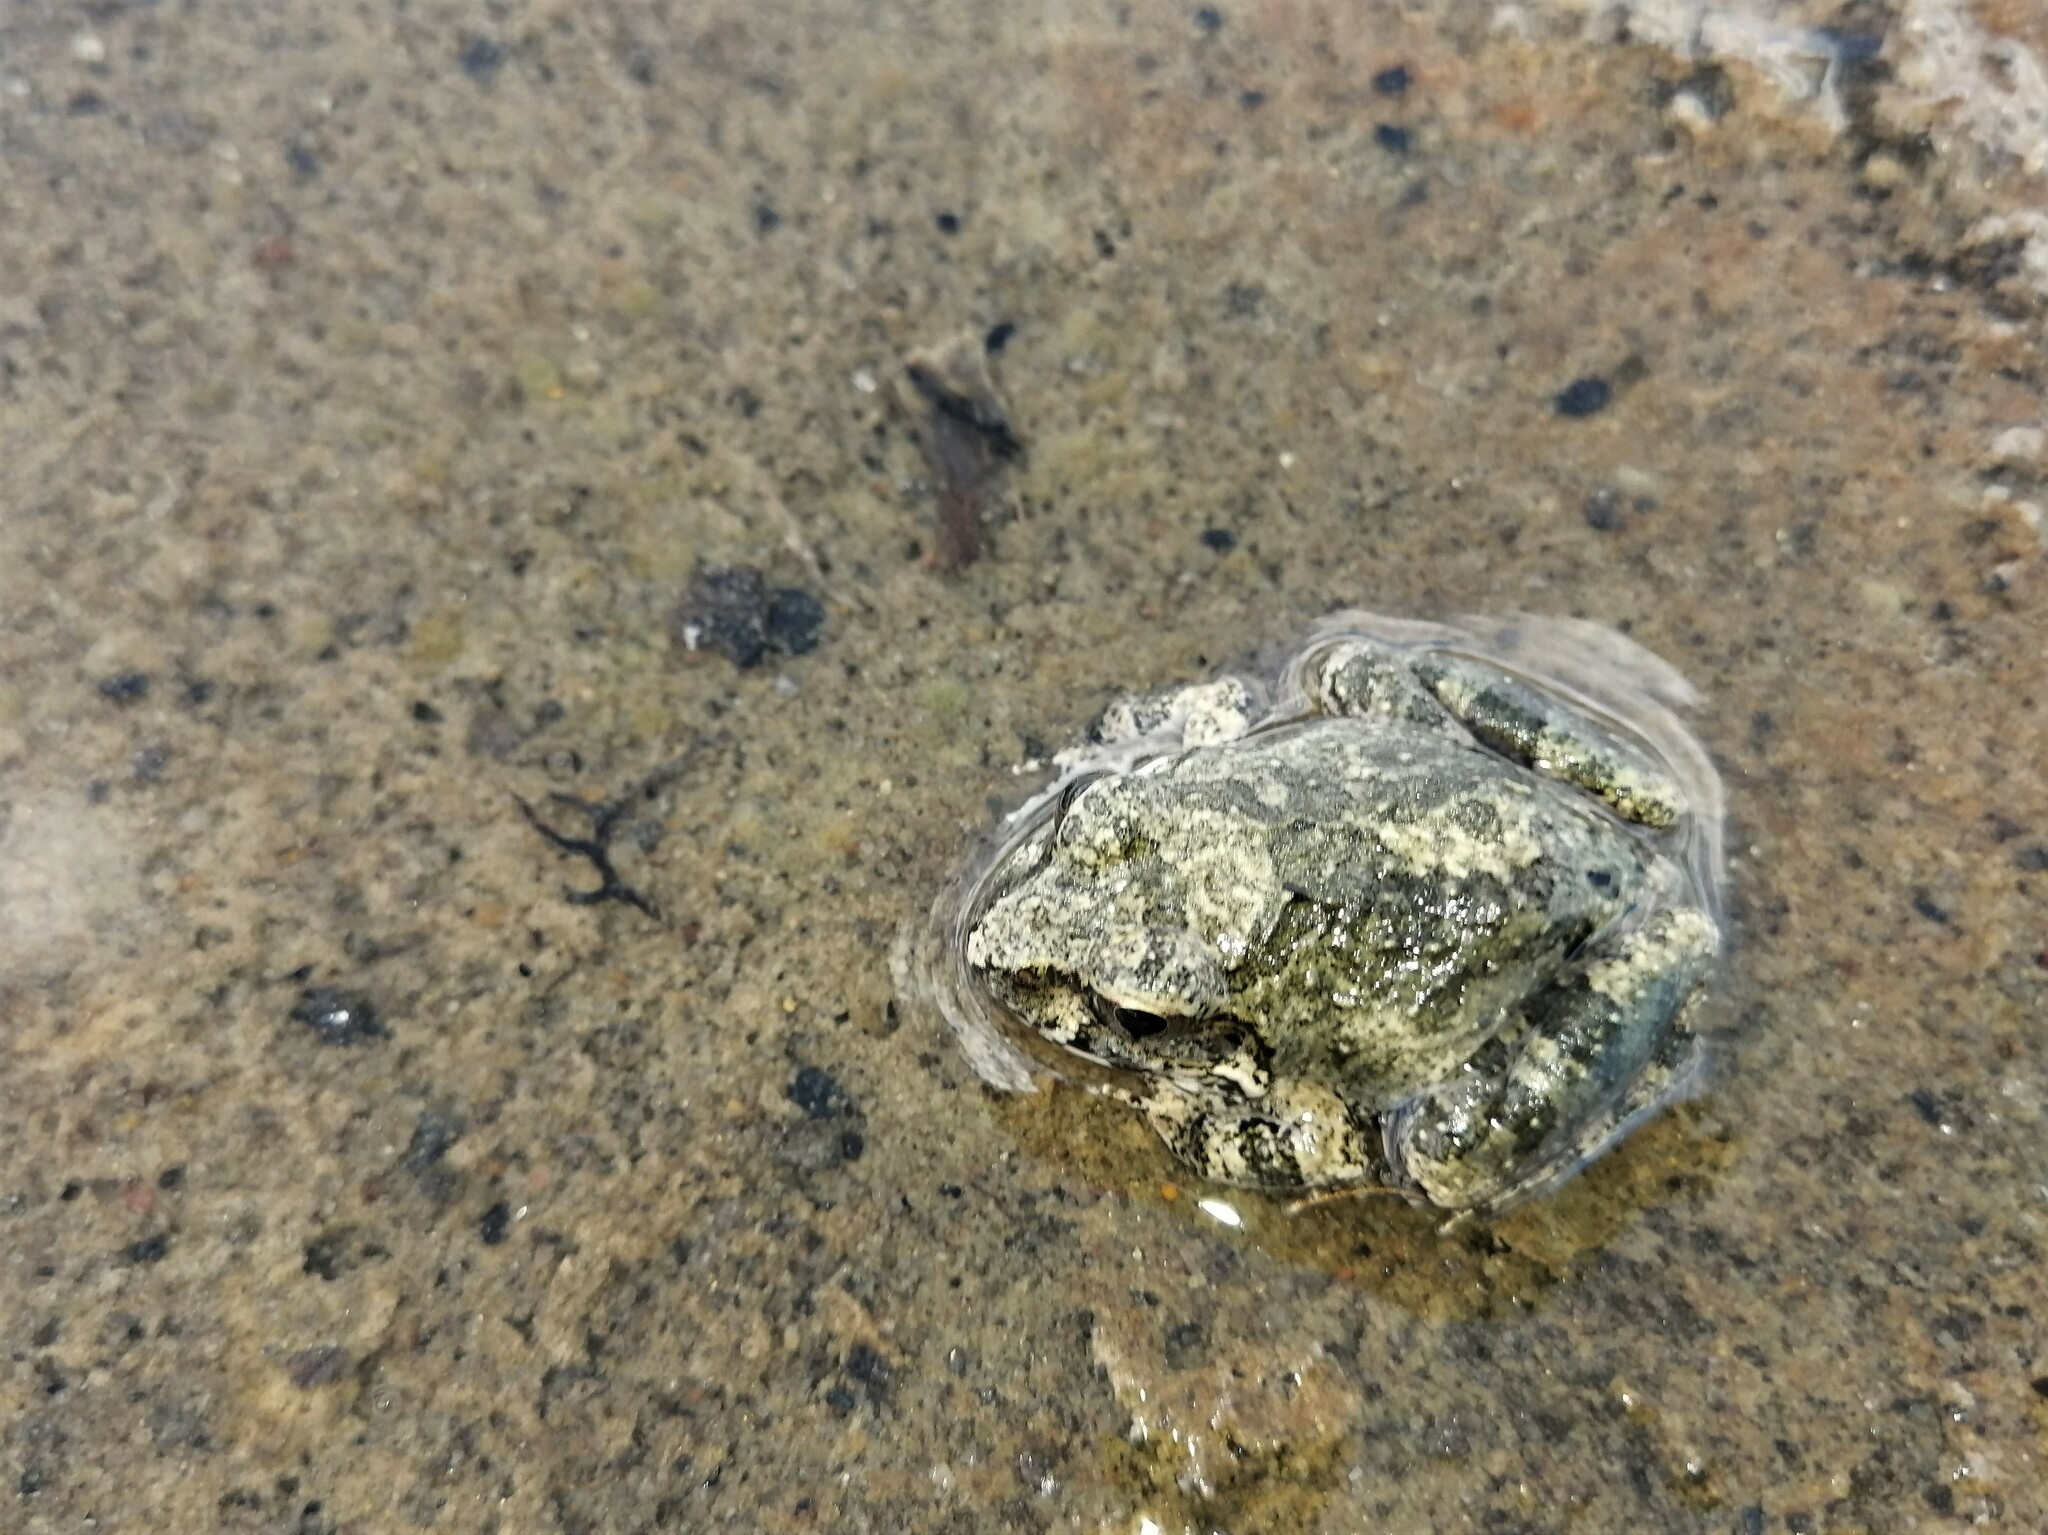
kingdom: Animalia
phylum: Chordata
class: Amphibia
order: Anura
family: Pyxicephalidae
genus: Tomopterna
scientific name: Tomopterna natalensis
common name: Natal sand frog
